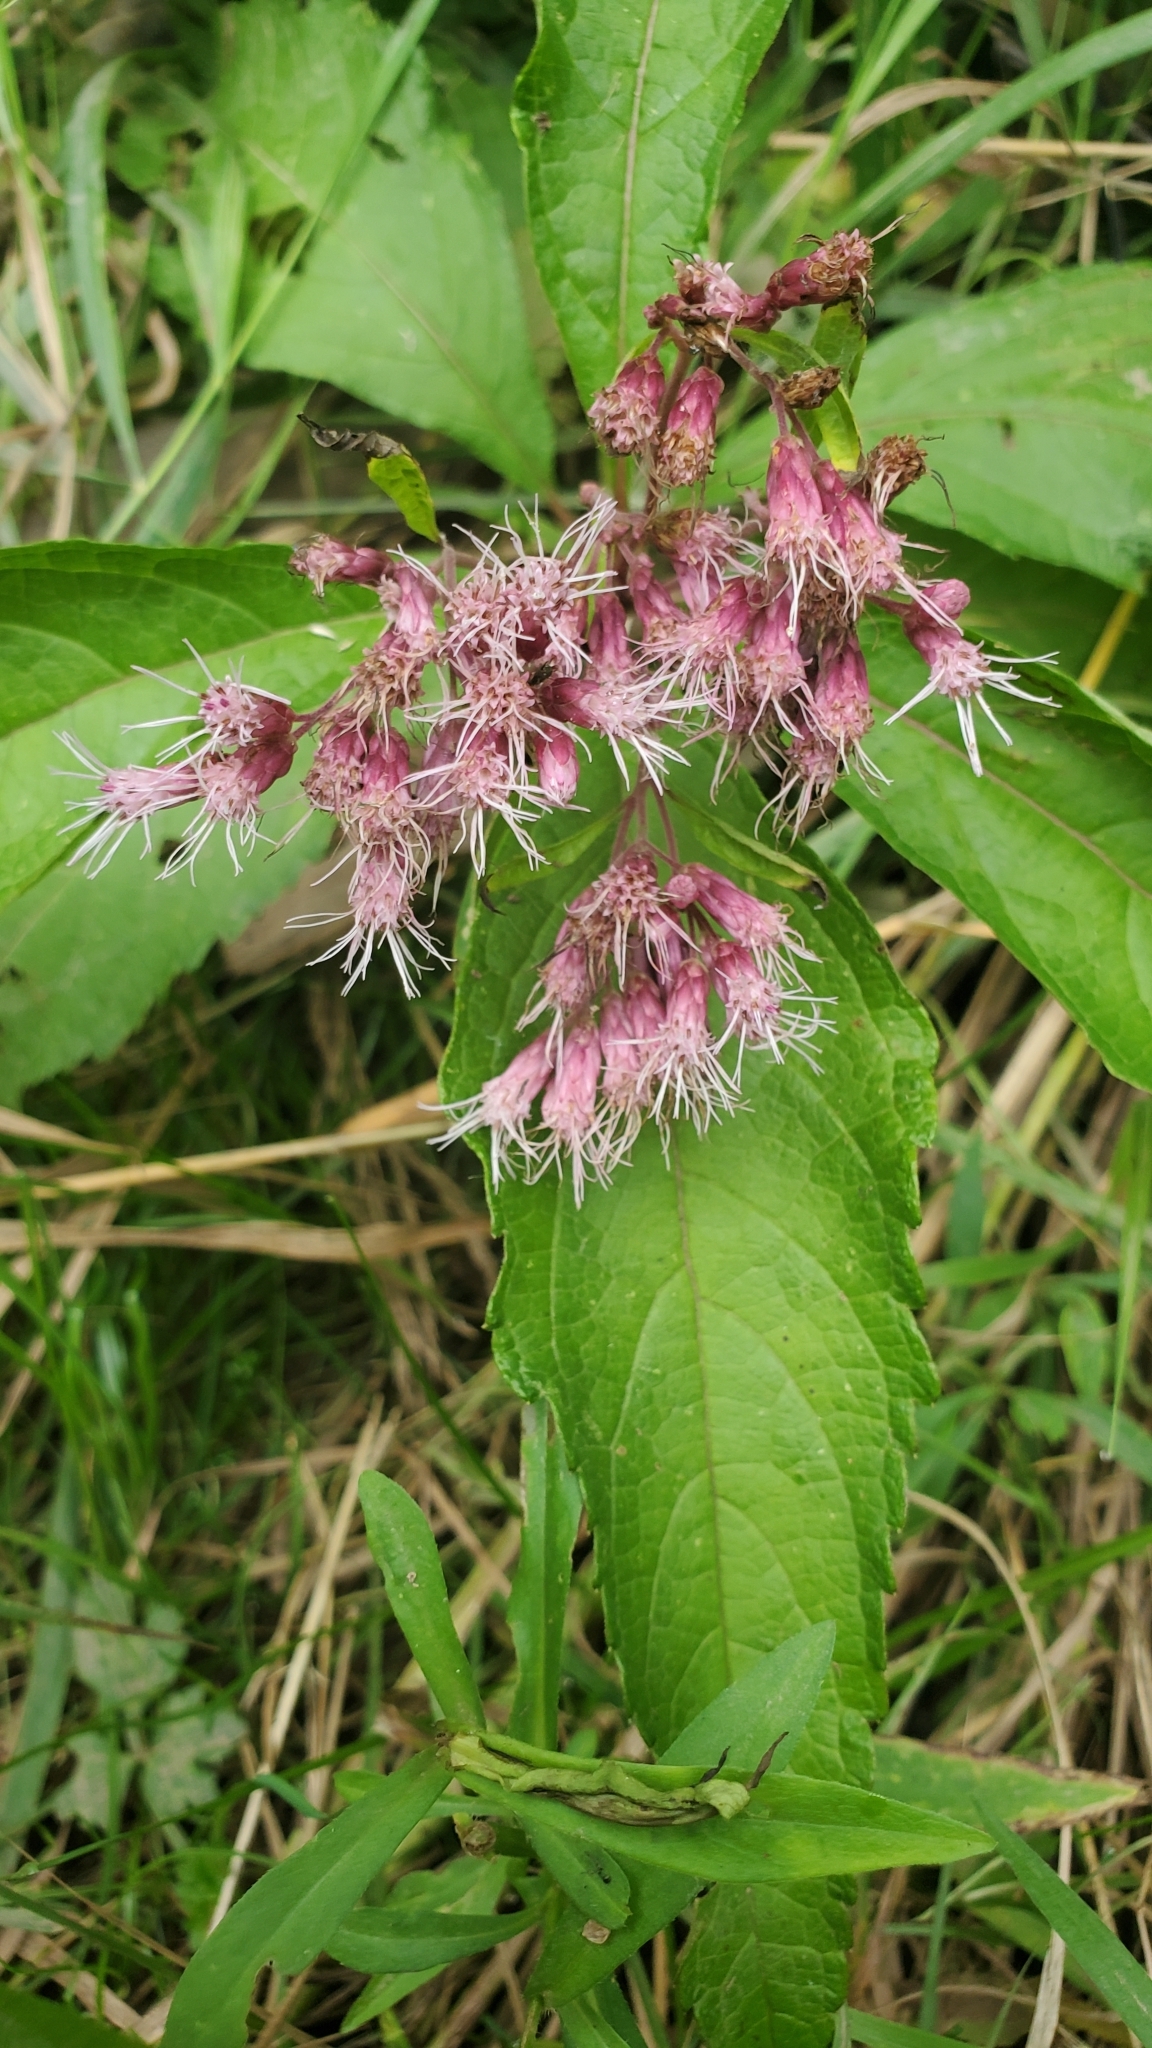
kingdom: Plantae
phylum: Tracheophyta
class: Magnoliopsida
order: Asterales
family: Asteraceae
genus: Eutrochium
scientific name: Eutrochium maculatum
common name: Spotted joe pye weed
